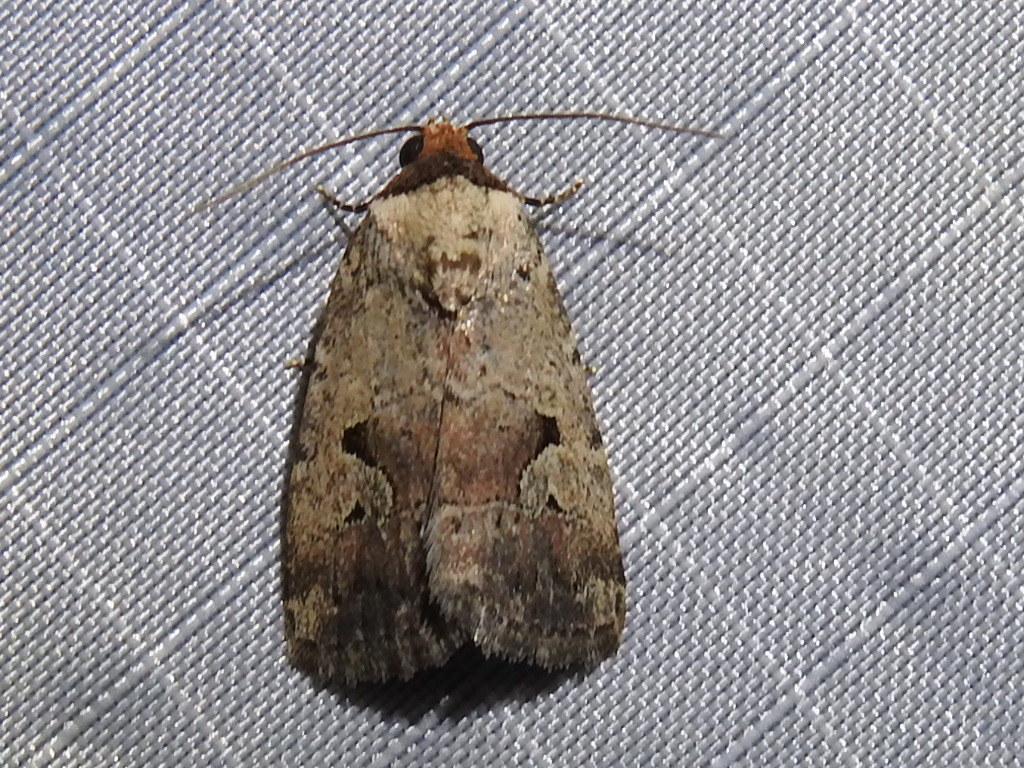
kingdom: Animalia
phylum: Arthropoda
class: Insecta
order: Lepidoptera
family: Noctuidae
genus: Elaphria
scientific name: Elaphria festivoides
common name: Festive midget
